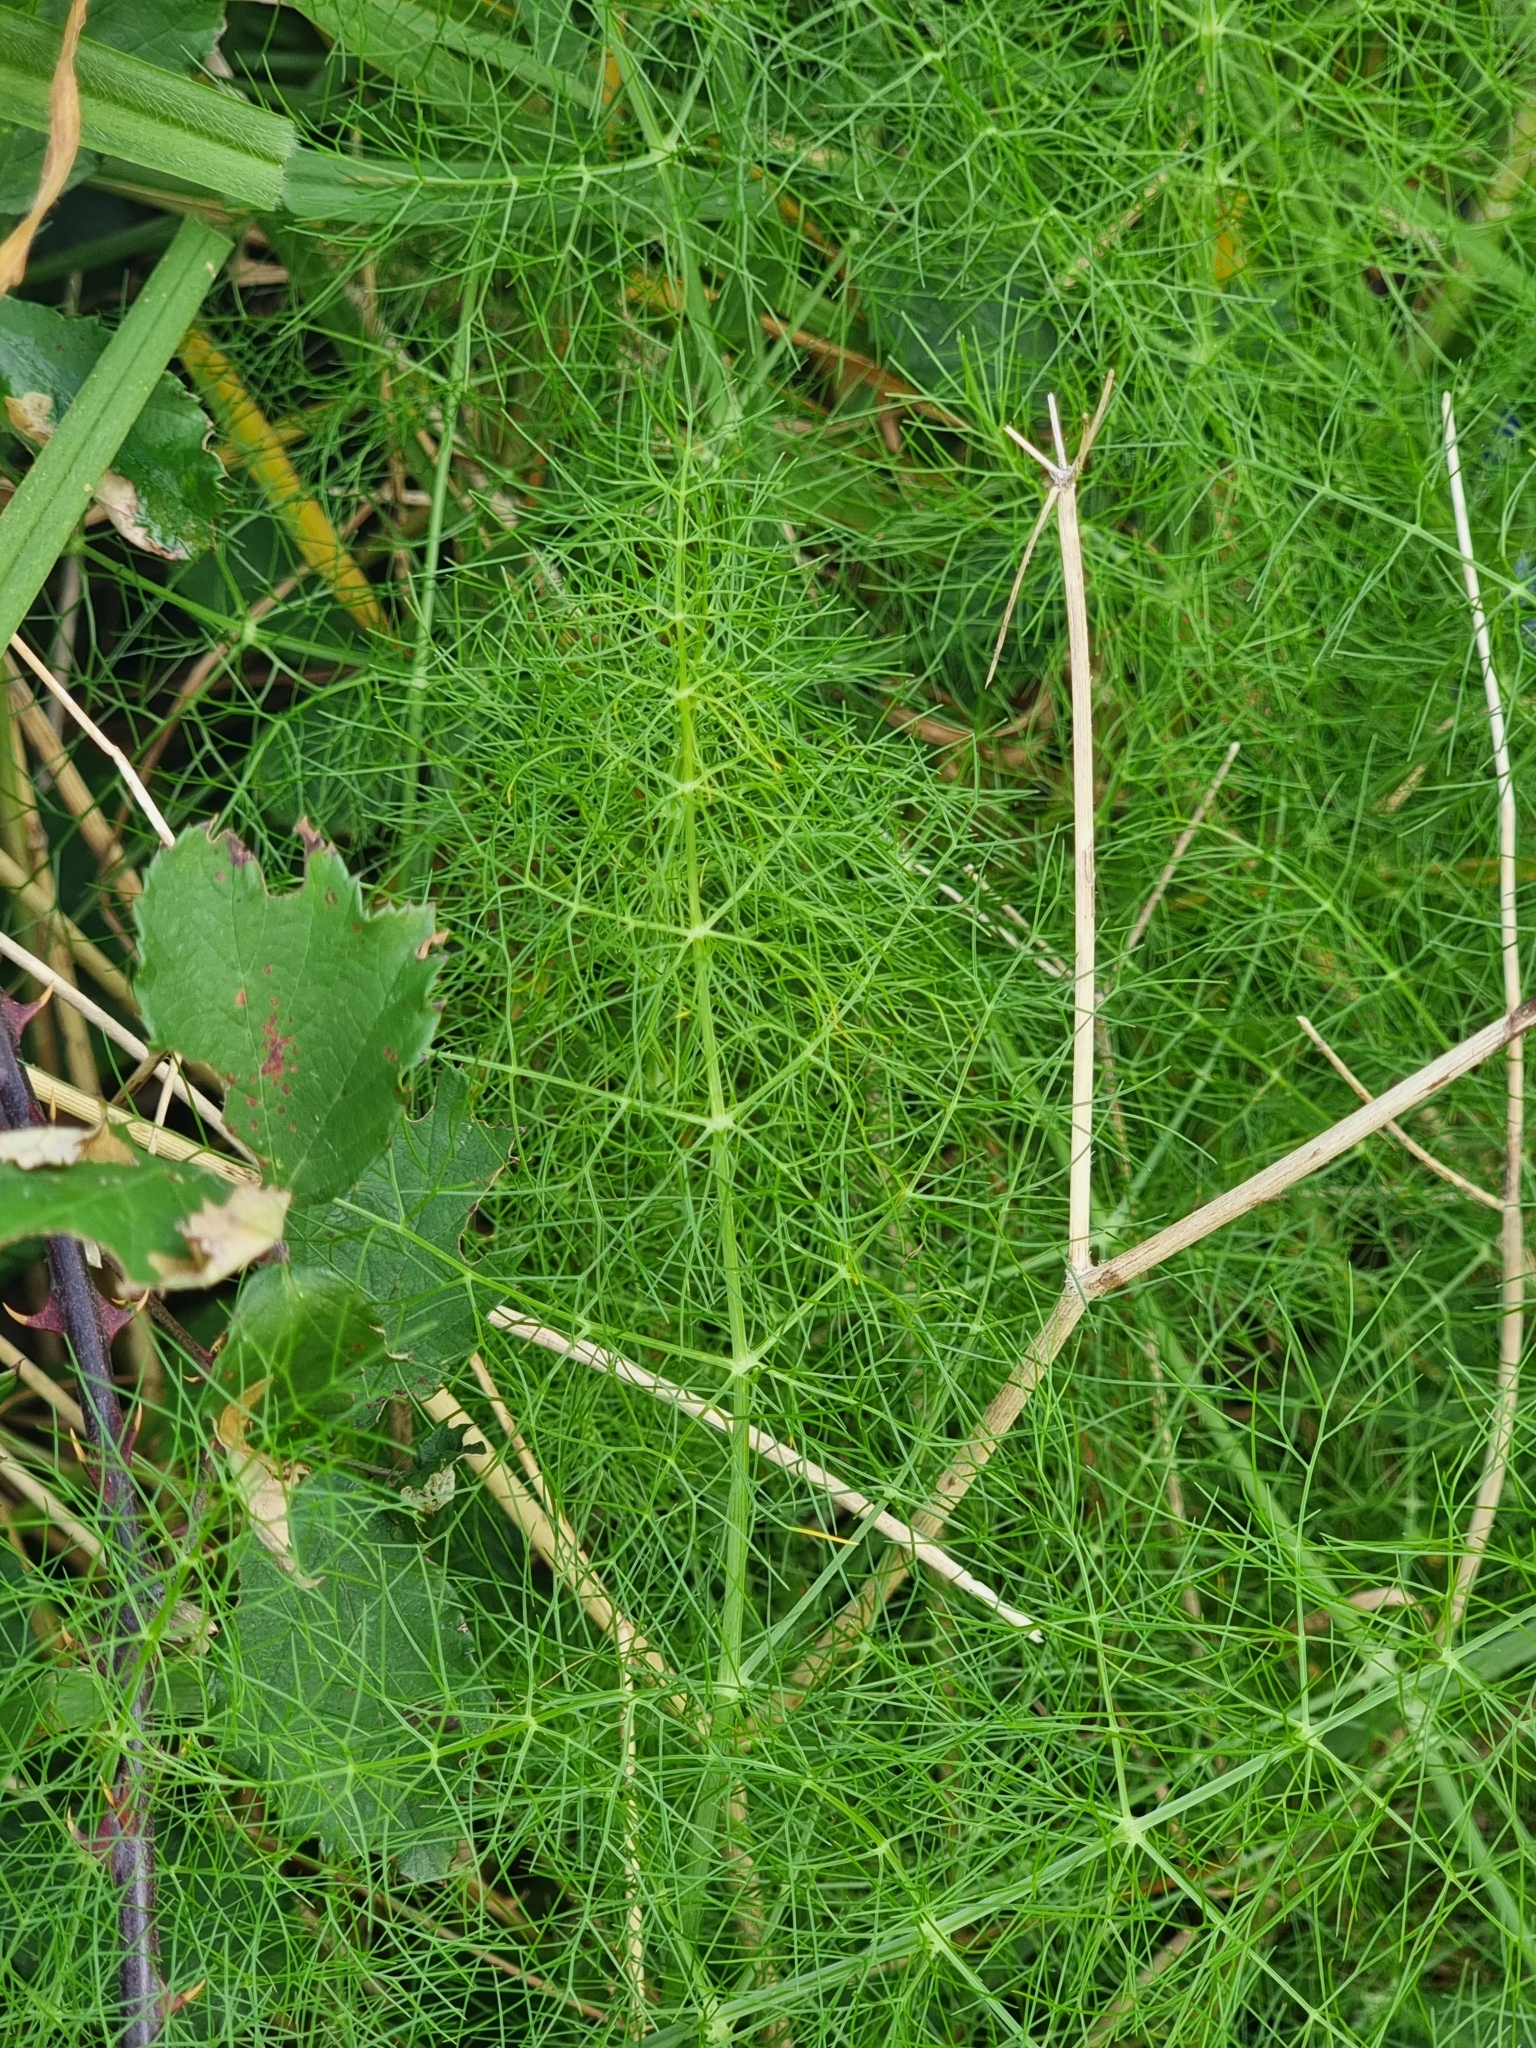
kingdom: Plantae
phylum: Tracheophyta
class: Magnoliopsida
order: Apiales
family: Apiaceae
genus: Foeniculum
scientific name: Foeniculum vulgare
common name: Fennel
